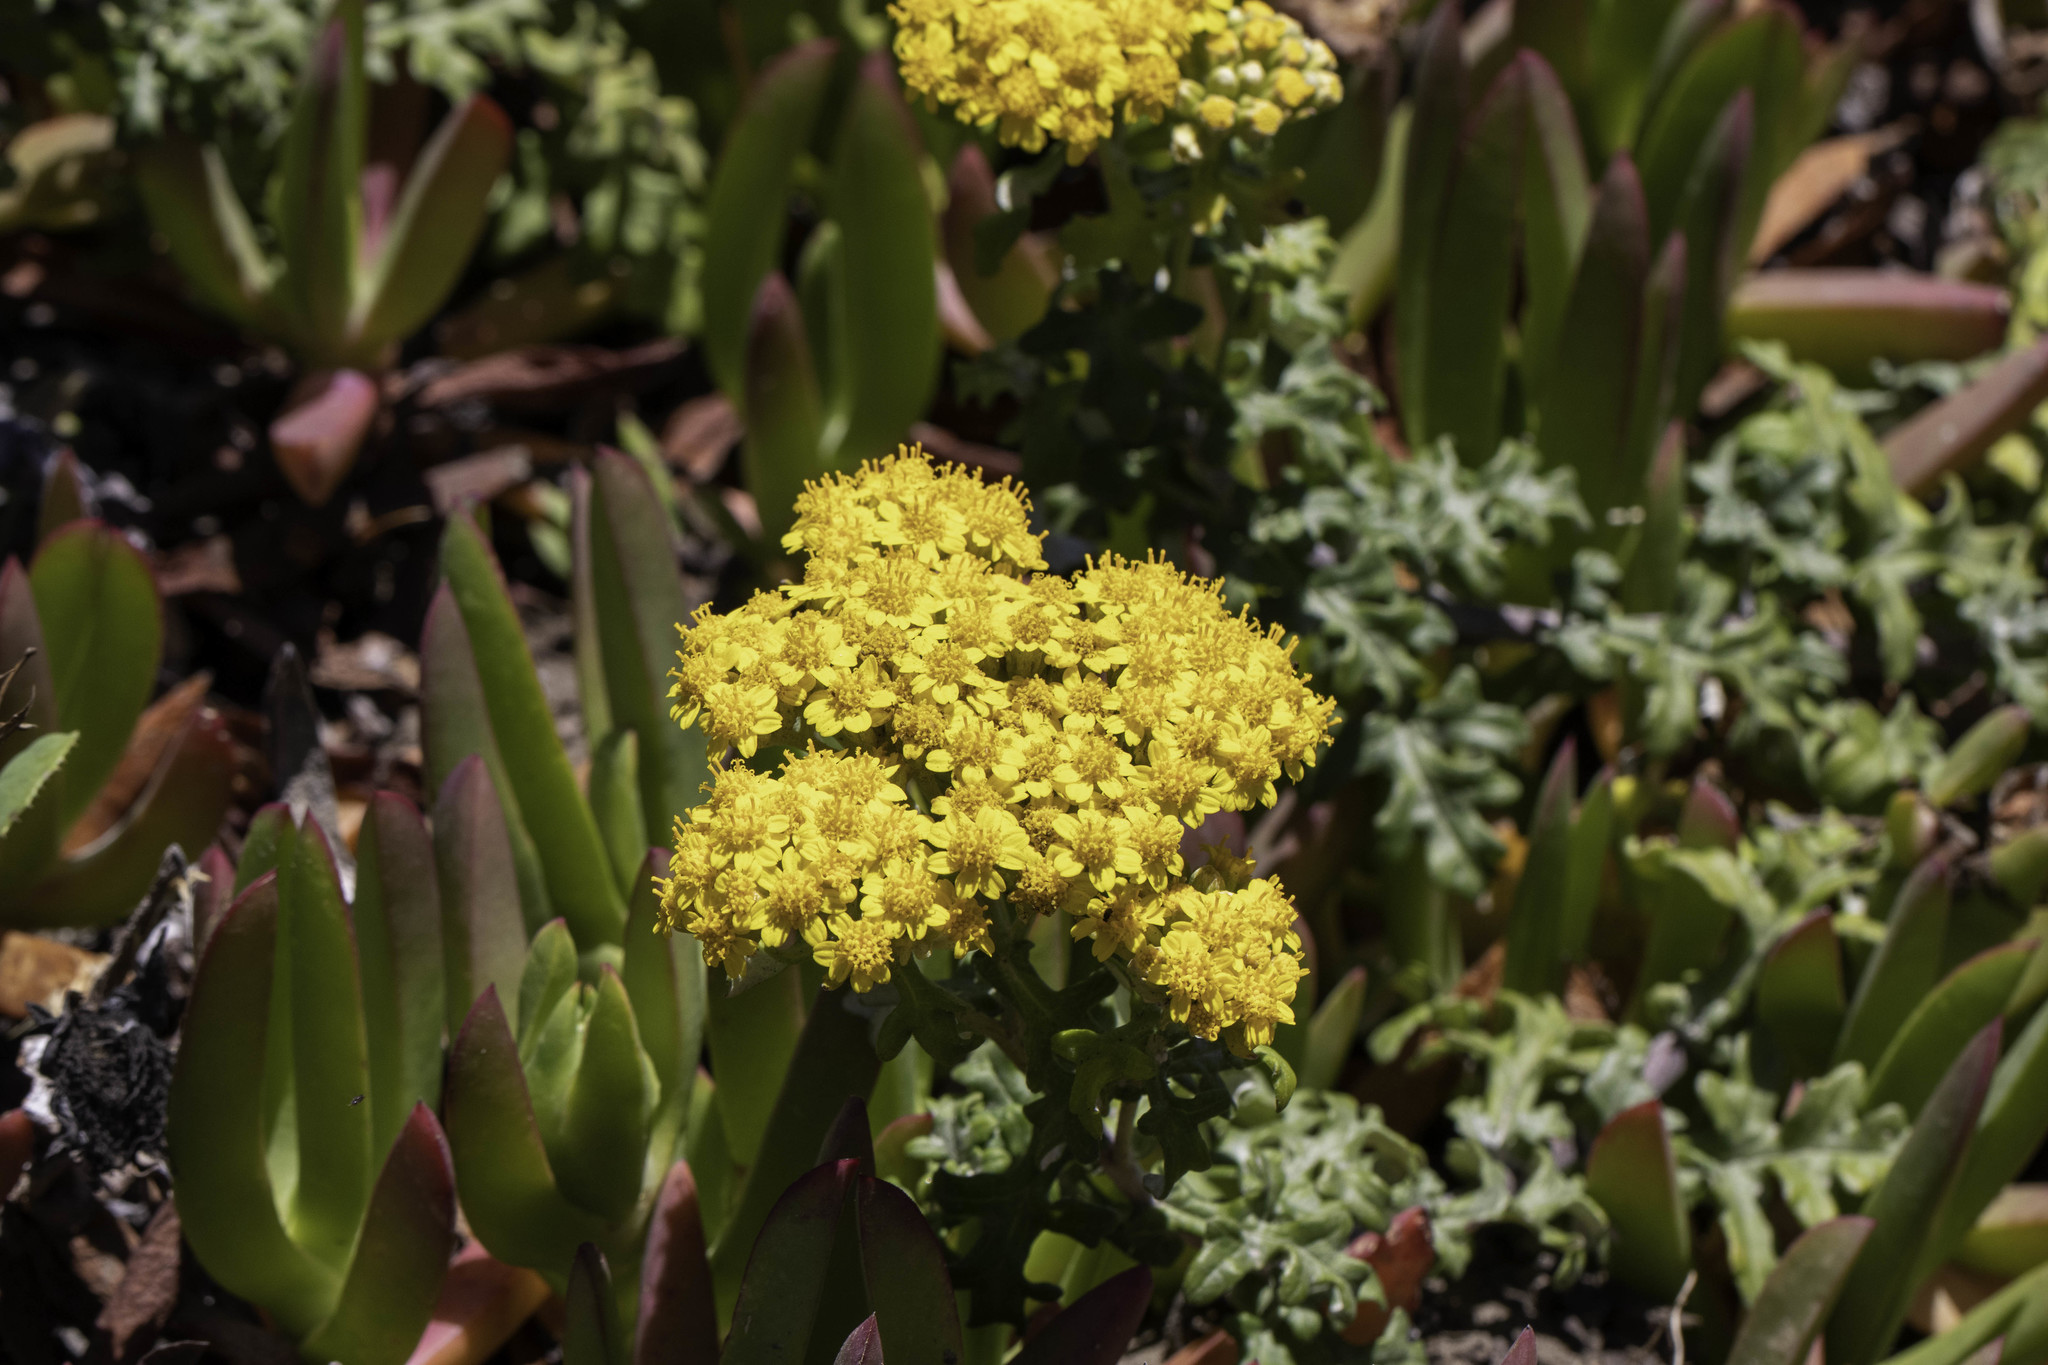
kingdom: Plantae
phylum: Tracheophyta
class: Magnoliopsida
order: Asterales
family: Asteraceae
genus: Eriophyllum
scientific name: Eriophyllum staechadifolium
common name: Lizardtail
